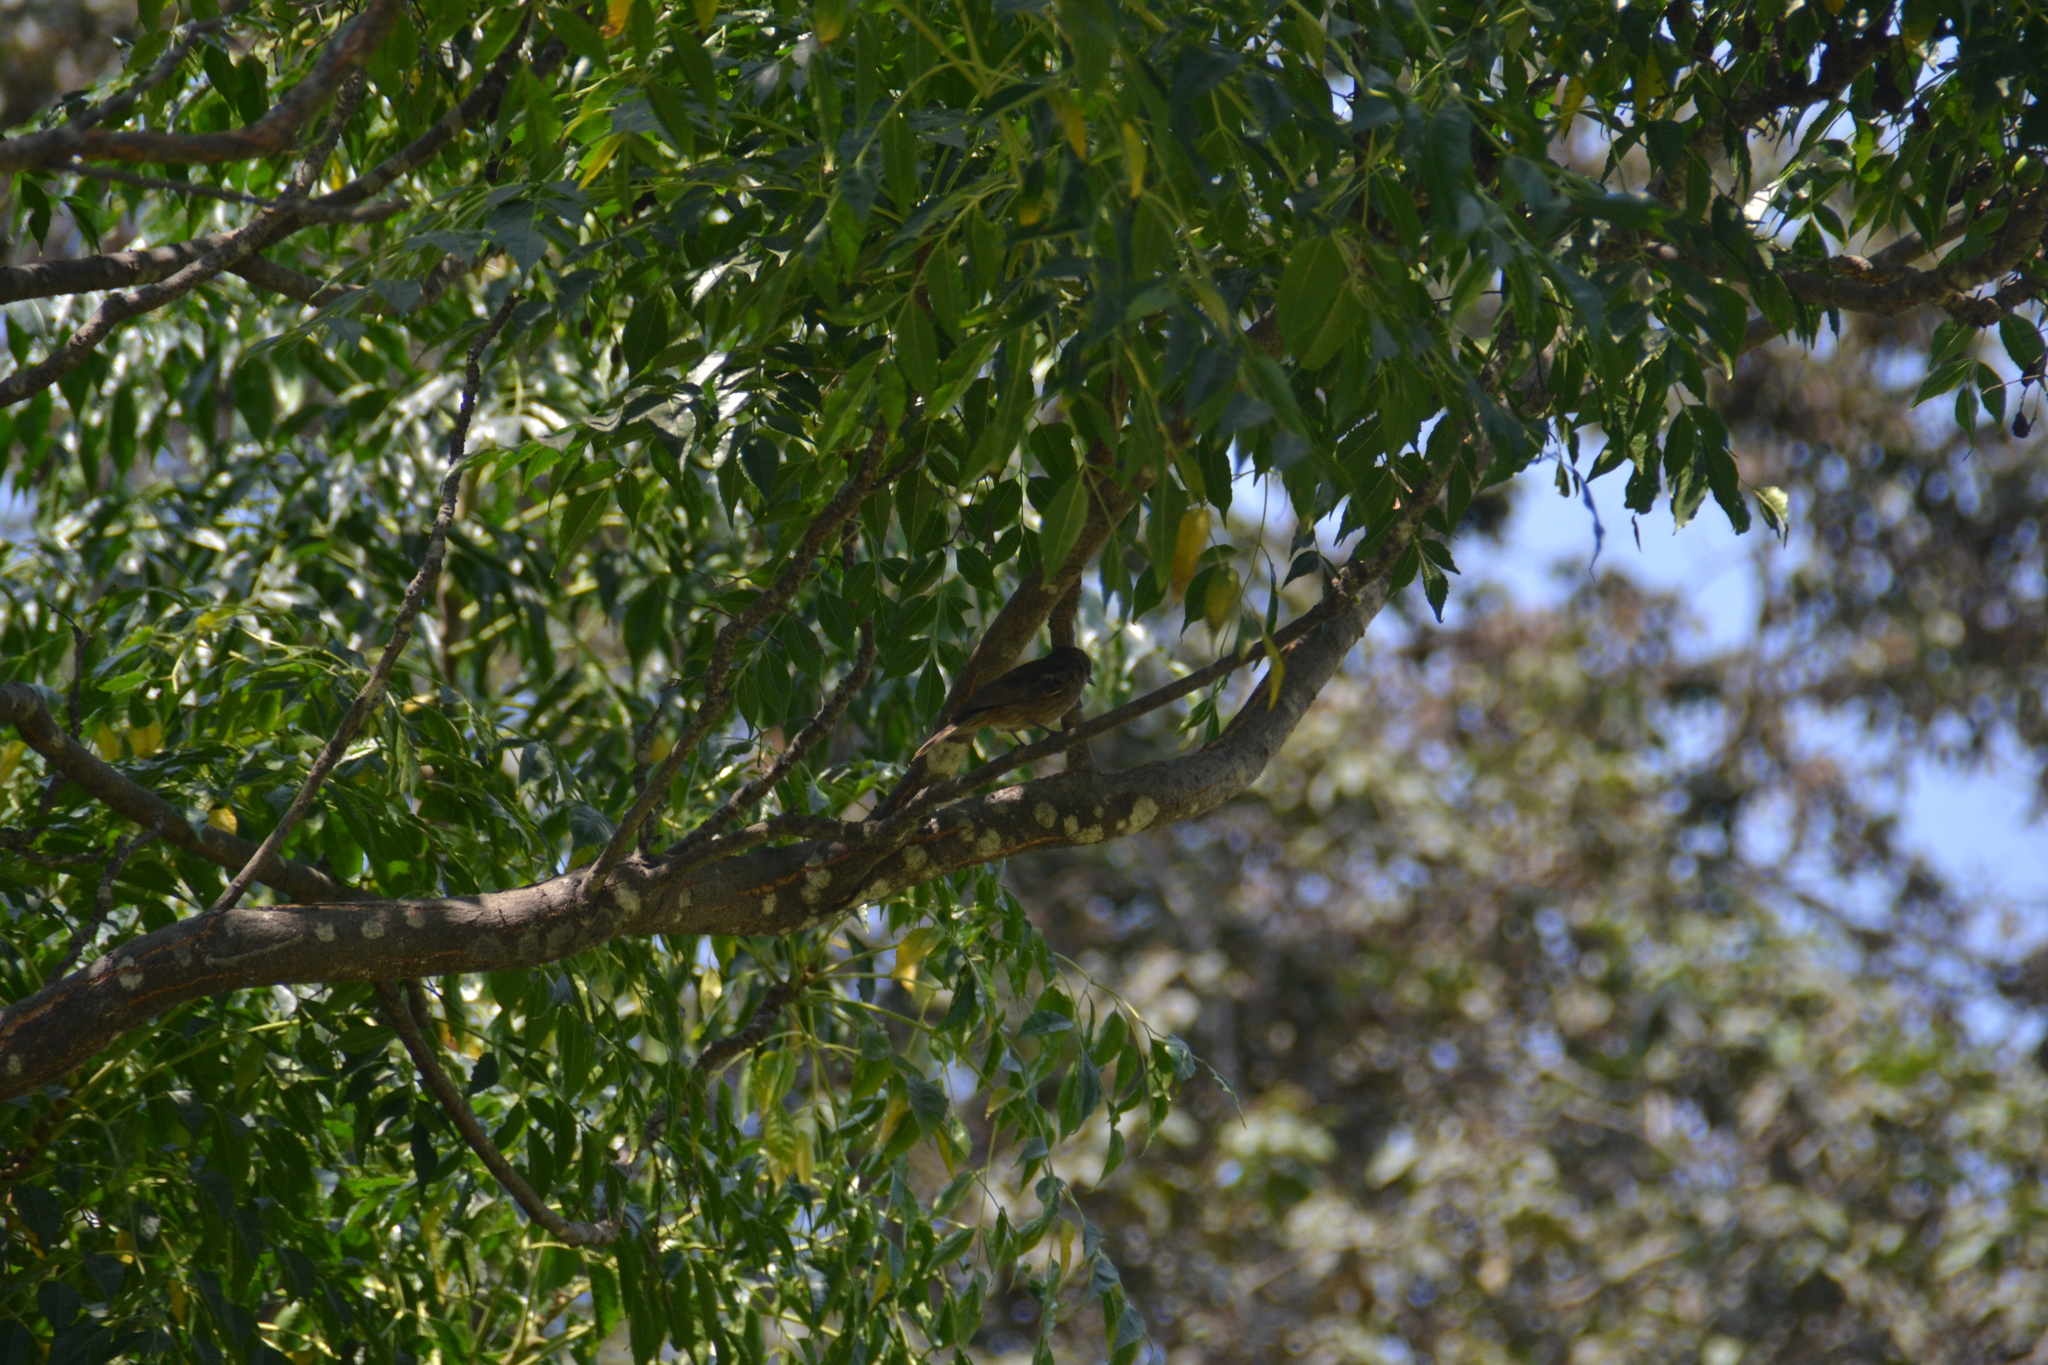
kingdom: Animalia
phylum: Chordata
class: Aves
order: Passeriformes
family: Tyrannidae
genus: Pyrocephalus
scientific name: Pyrocephalus rubinus
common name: Vermilion flycatcher
